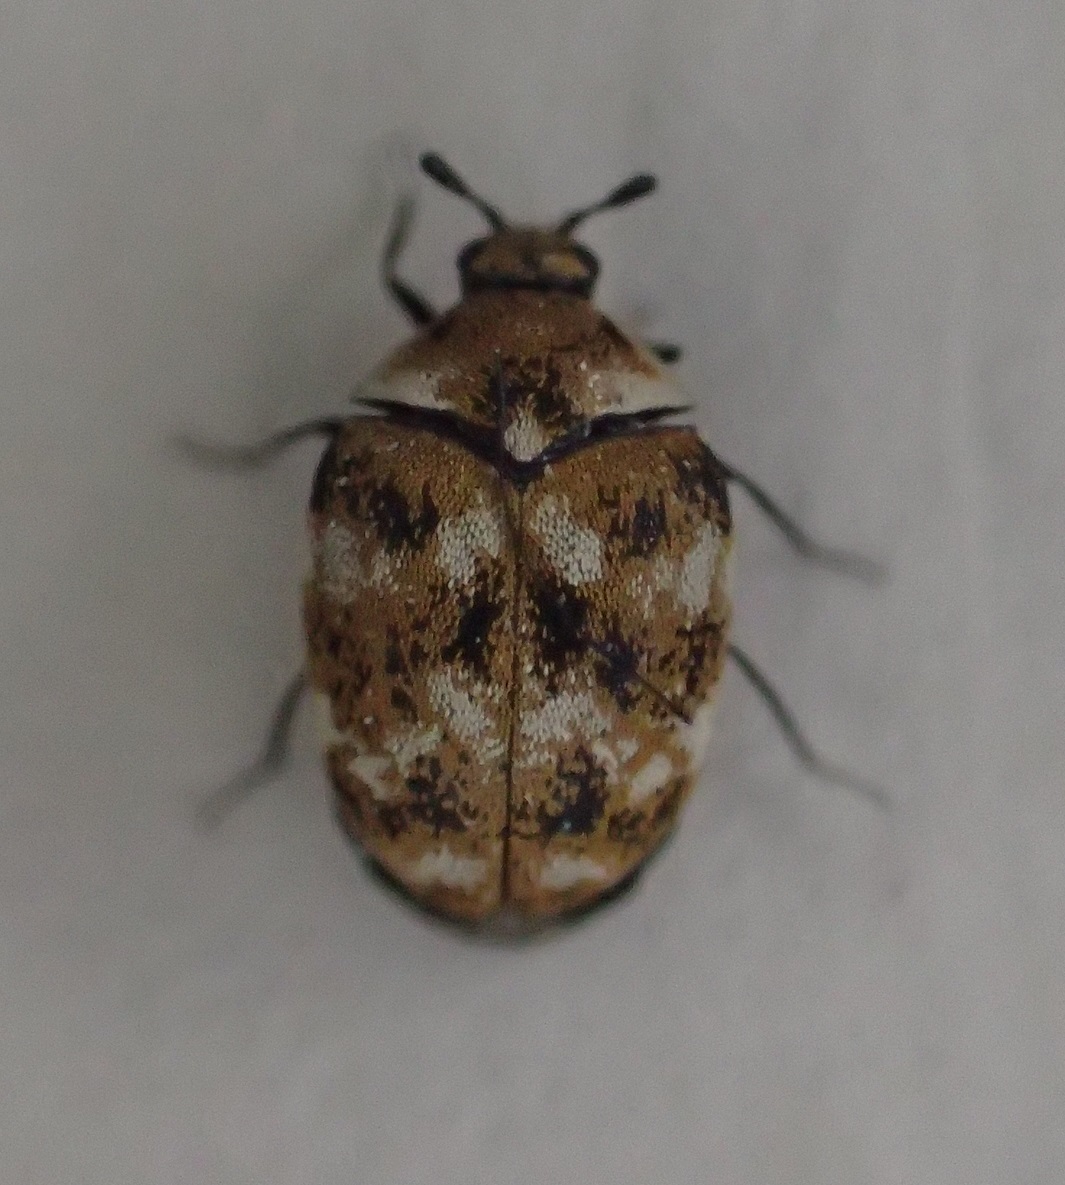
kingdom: Animalia
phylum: Arthropoda
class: Insecta
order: Coleoptera
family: Dermestidae
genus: Anthrenus
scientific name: Anthrenus verbasci
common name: Varied carpet beetle
